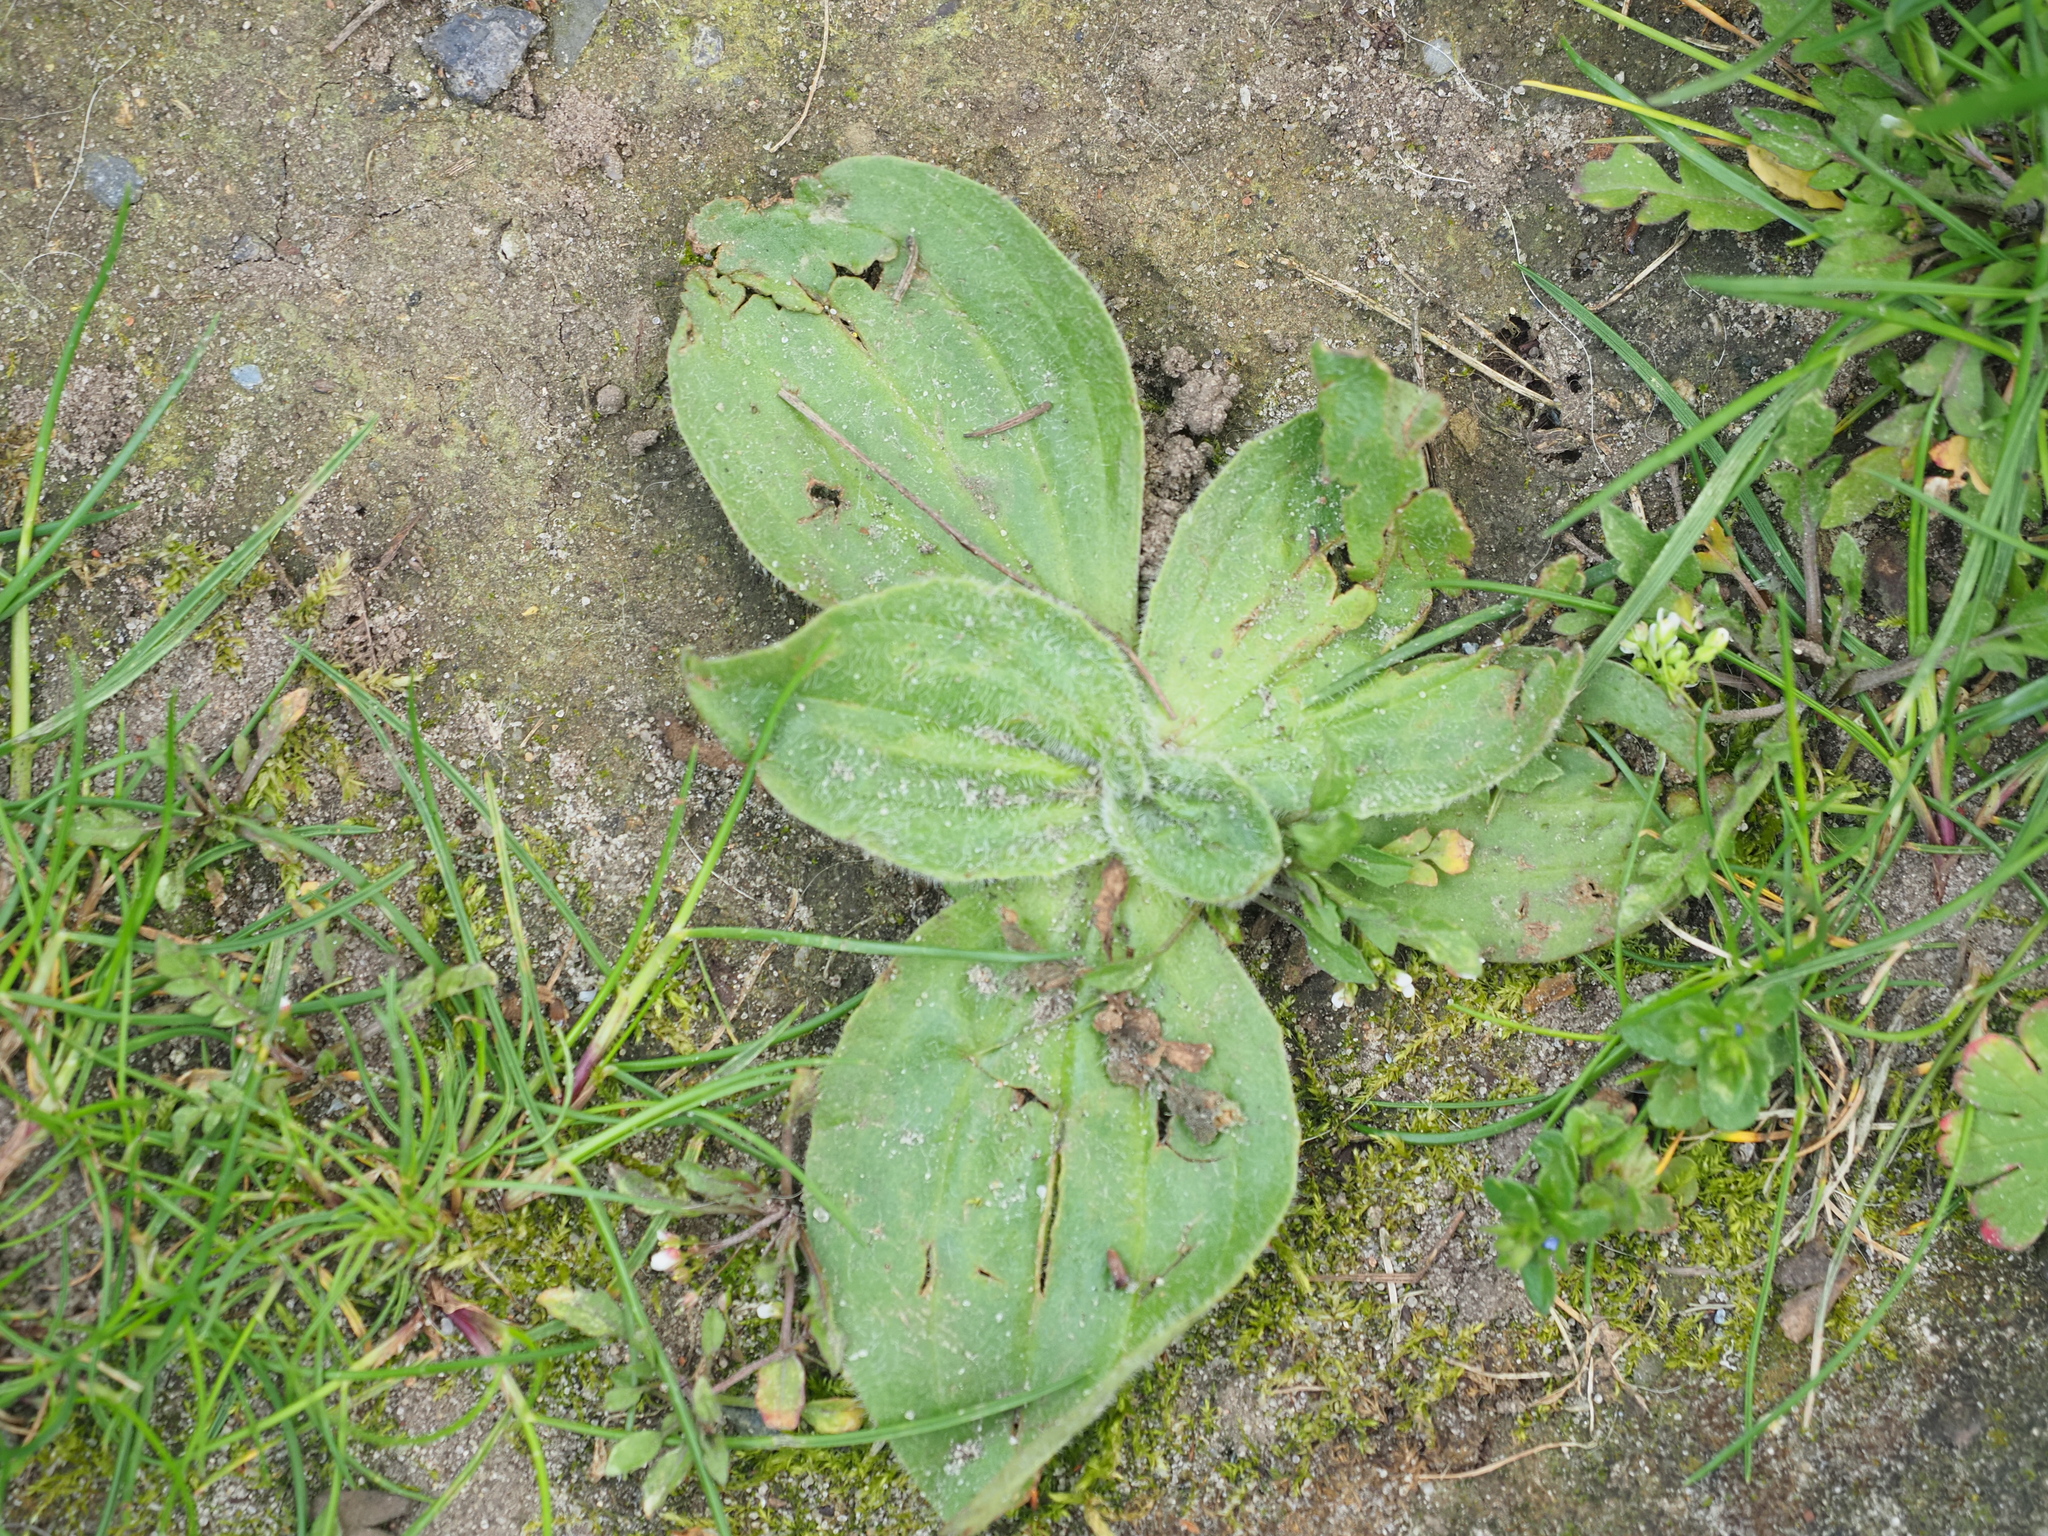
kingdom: Plantae
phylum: Tracheophyta
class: Magnoliopsida
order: Lamiales
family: Plantaginaceae
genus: Plantago
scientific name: Plantago media
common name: Hoary plantain
